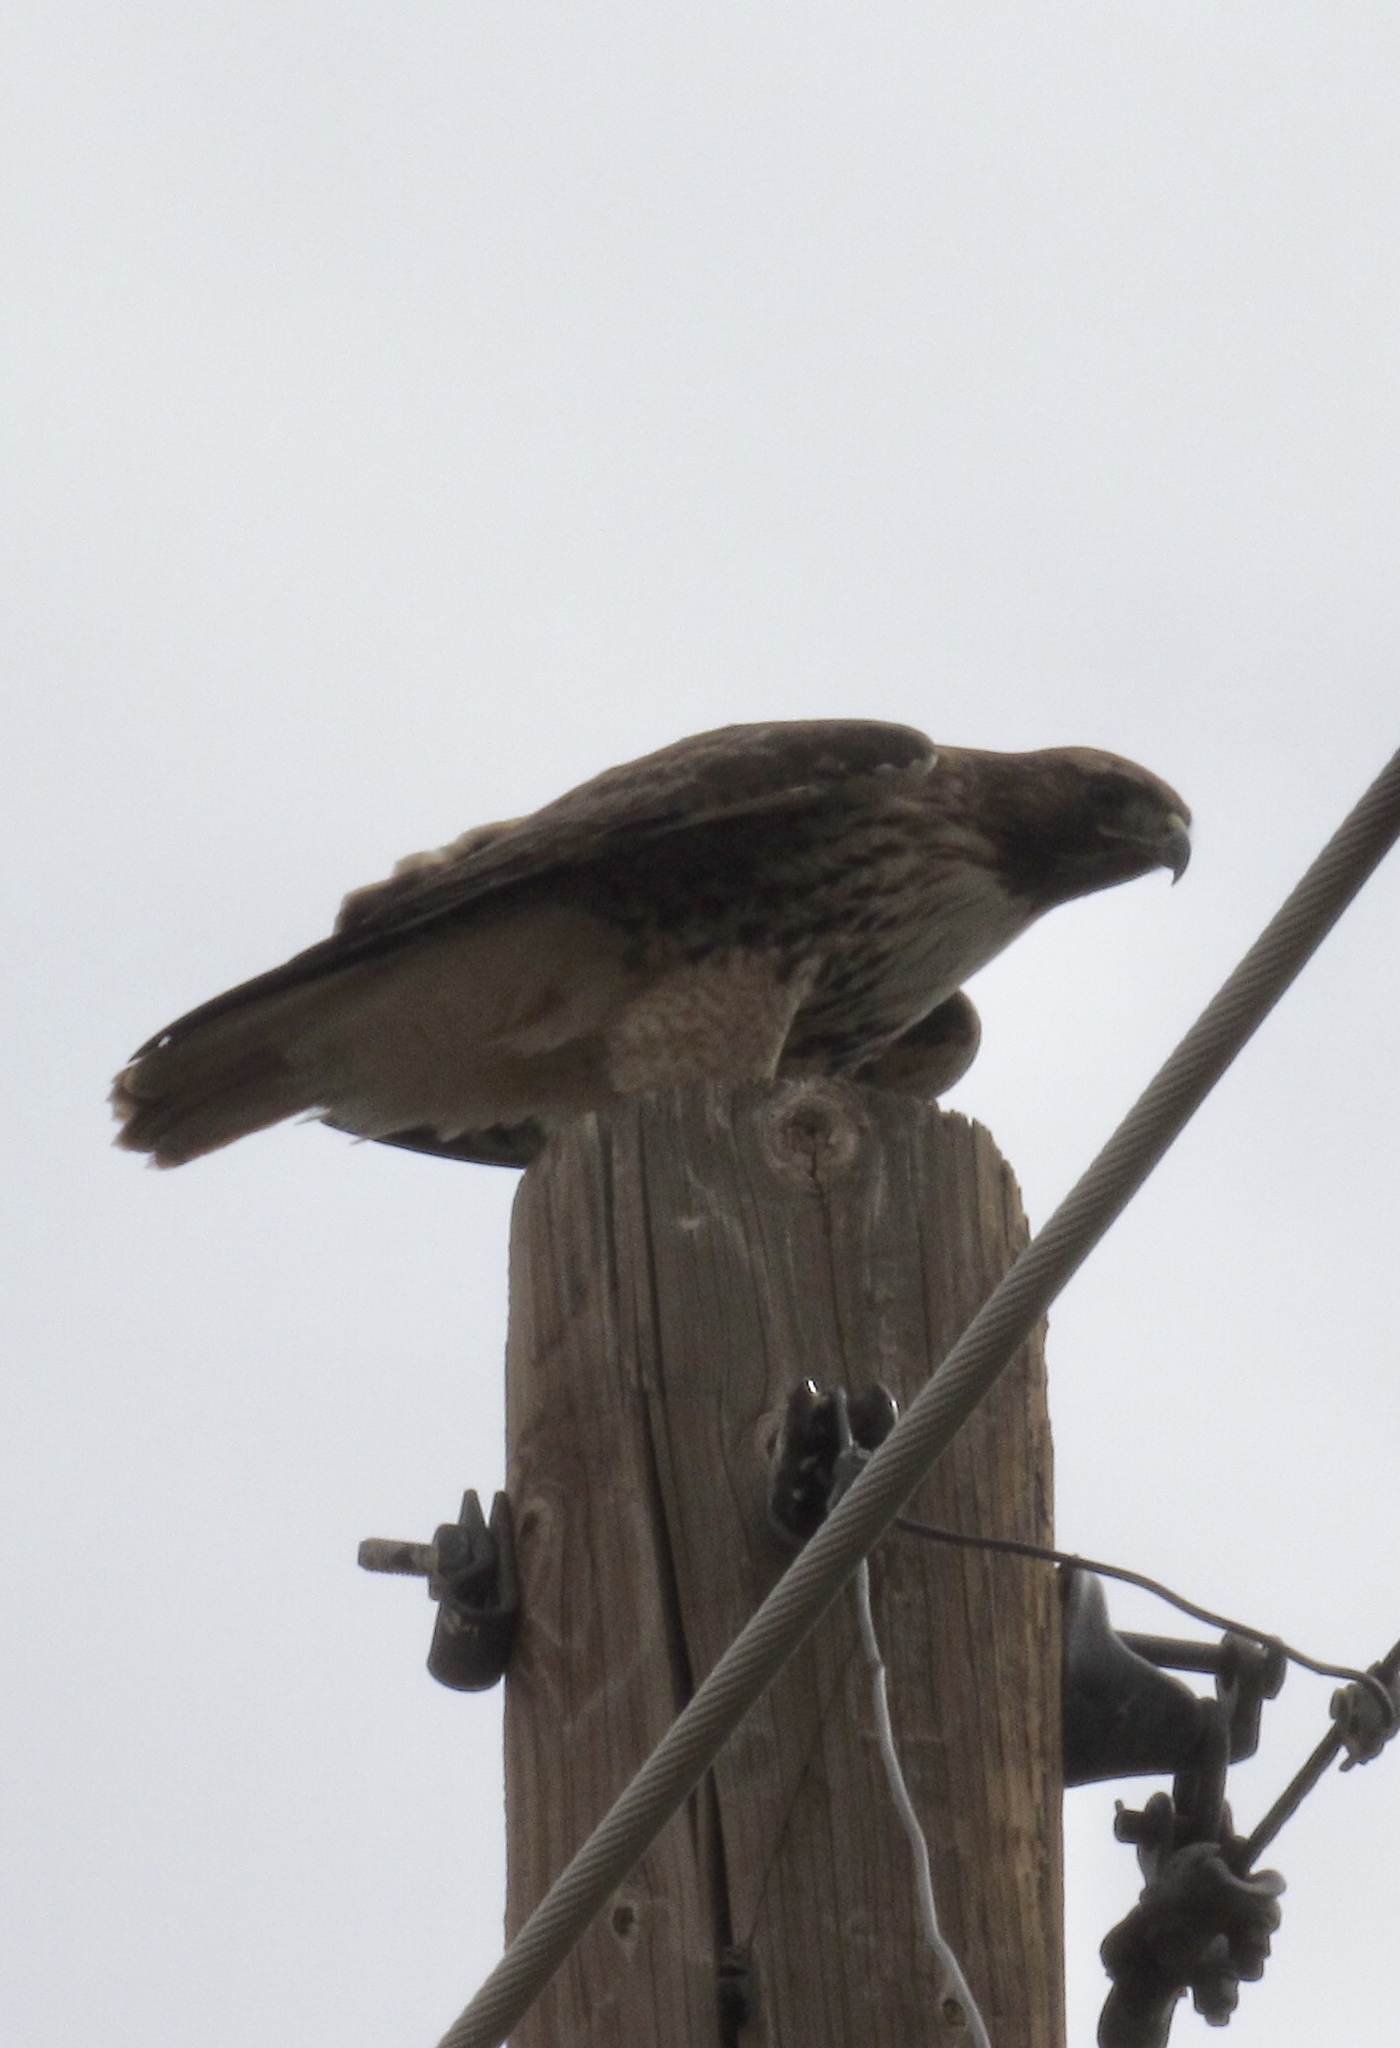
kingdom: Animalia
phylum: Chordata
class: Aves
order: Accipitriformes
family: Accipitridae
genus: Buteo
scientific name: Buteo jamaicensis
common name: Red-tailed hawk
